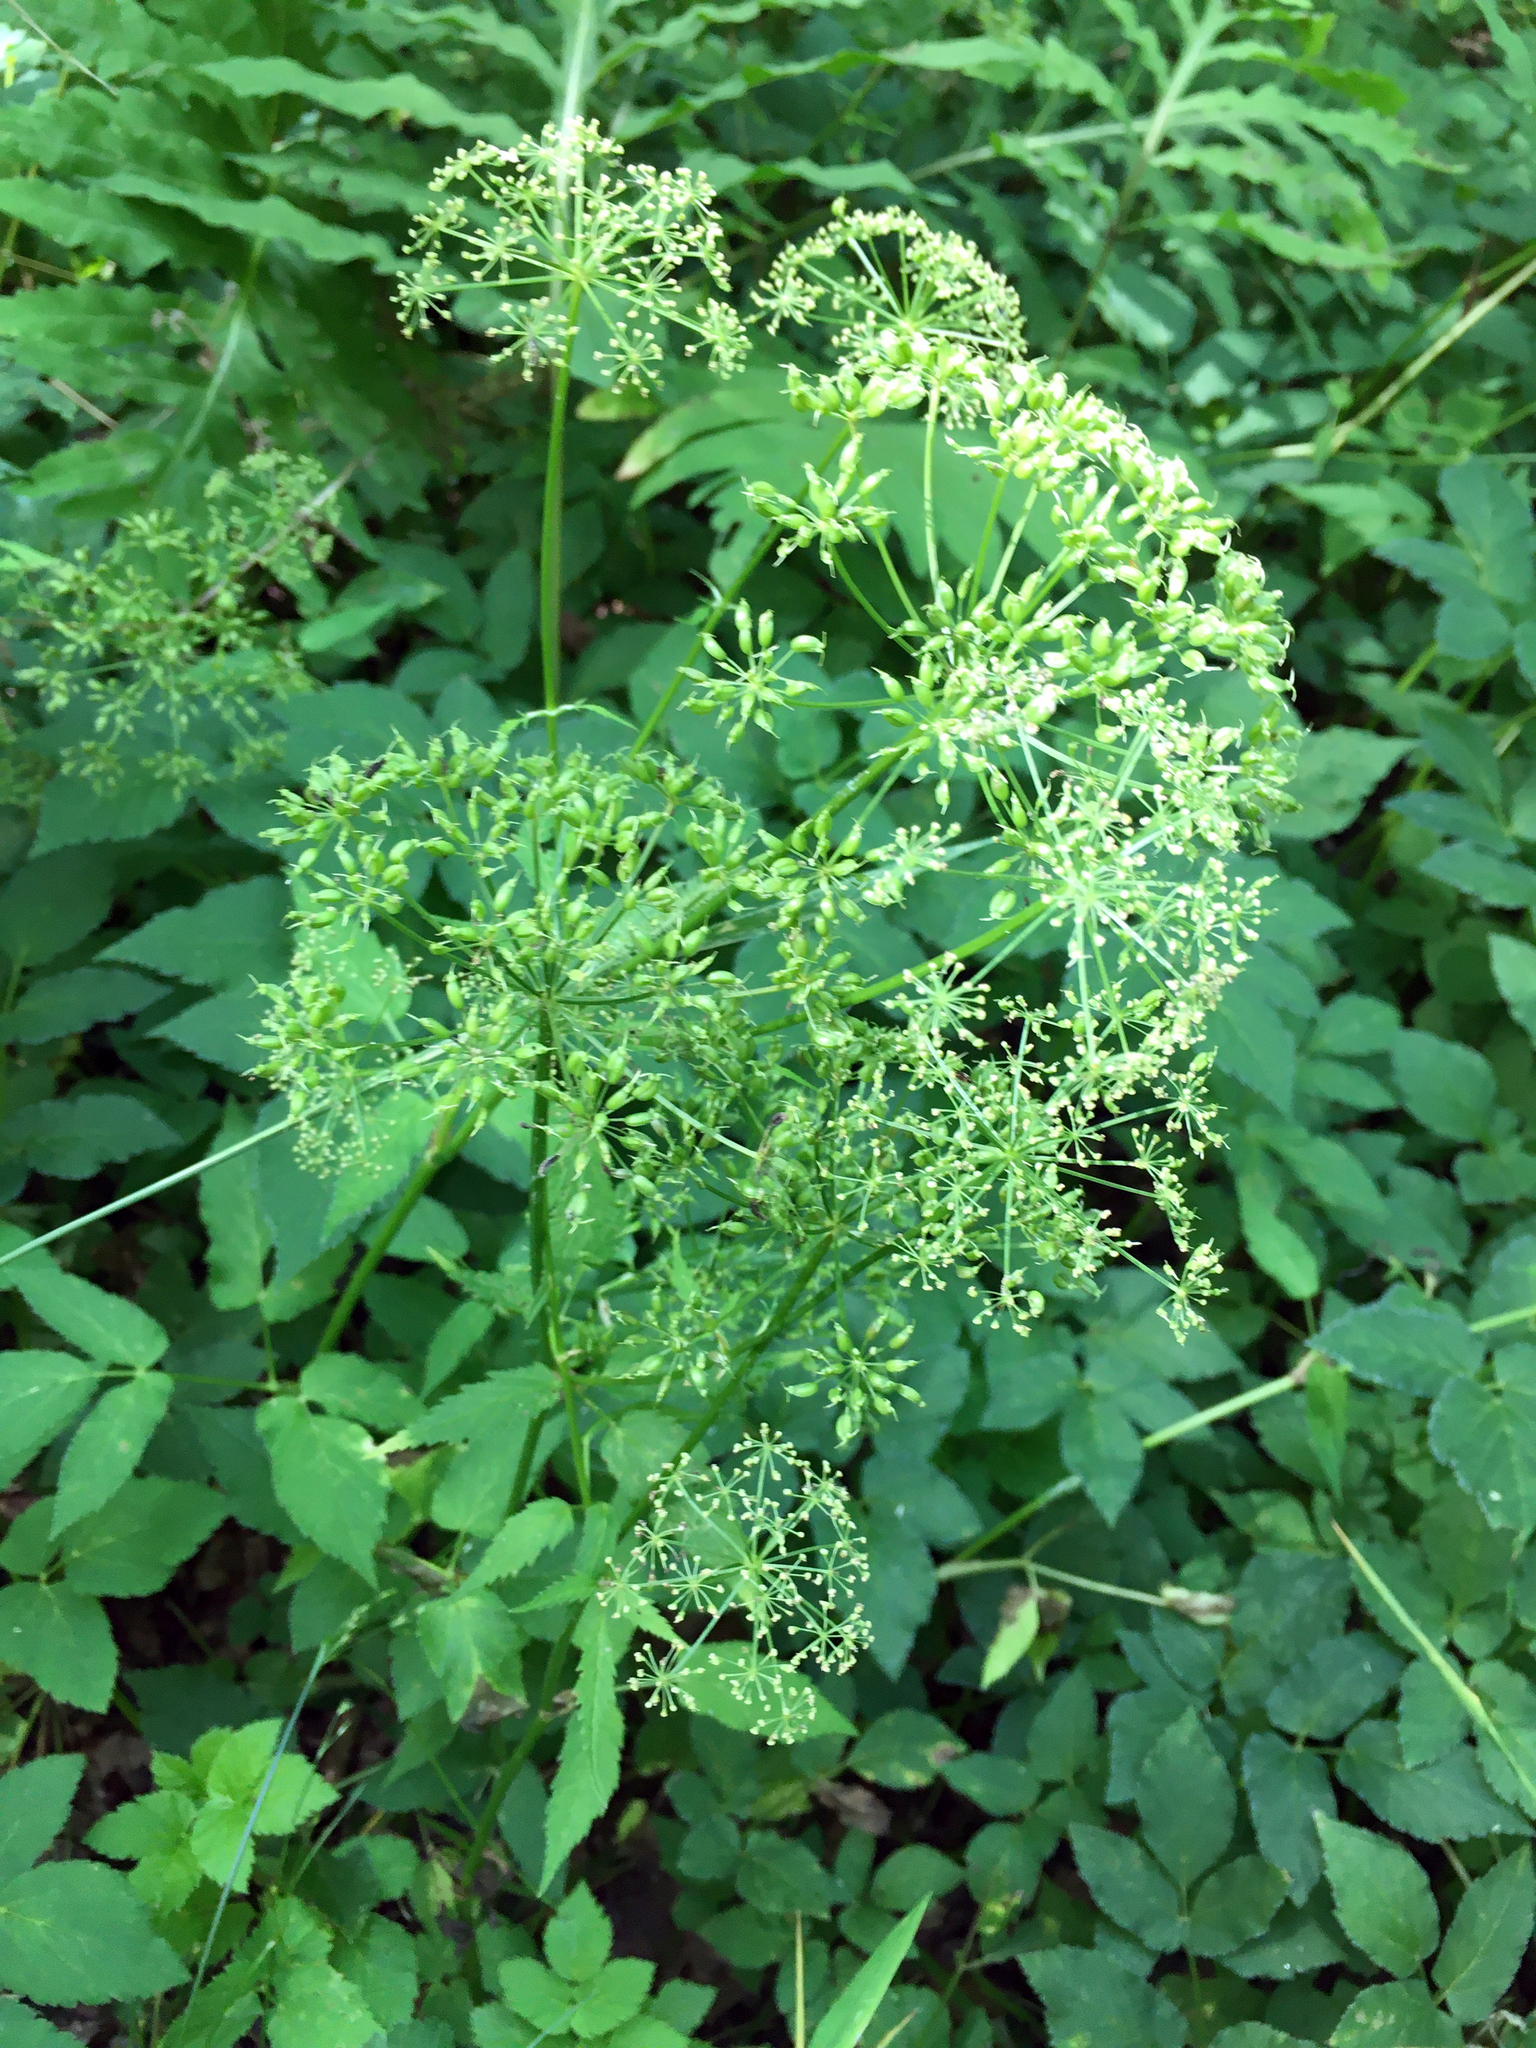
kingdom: Plantae
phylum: Tracheophyta
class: Magnoliopsida
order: Apiales
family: Apiaceae
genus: Aegopodium
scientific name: Aegopodium podagraria
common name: Ground-elder
